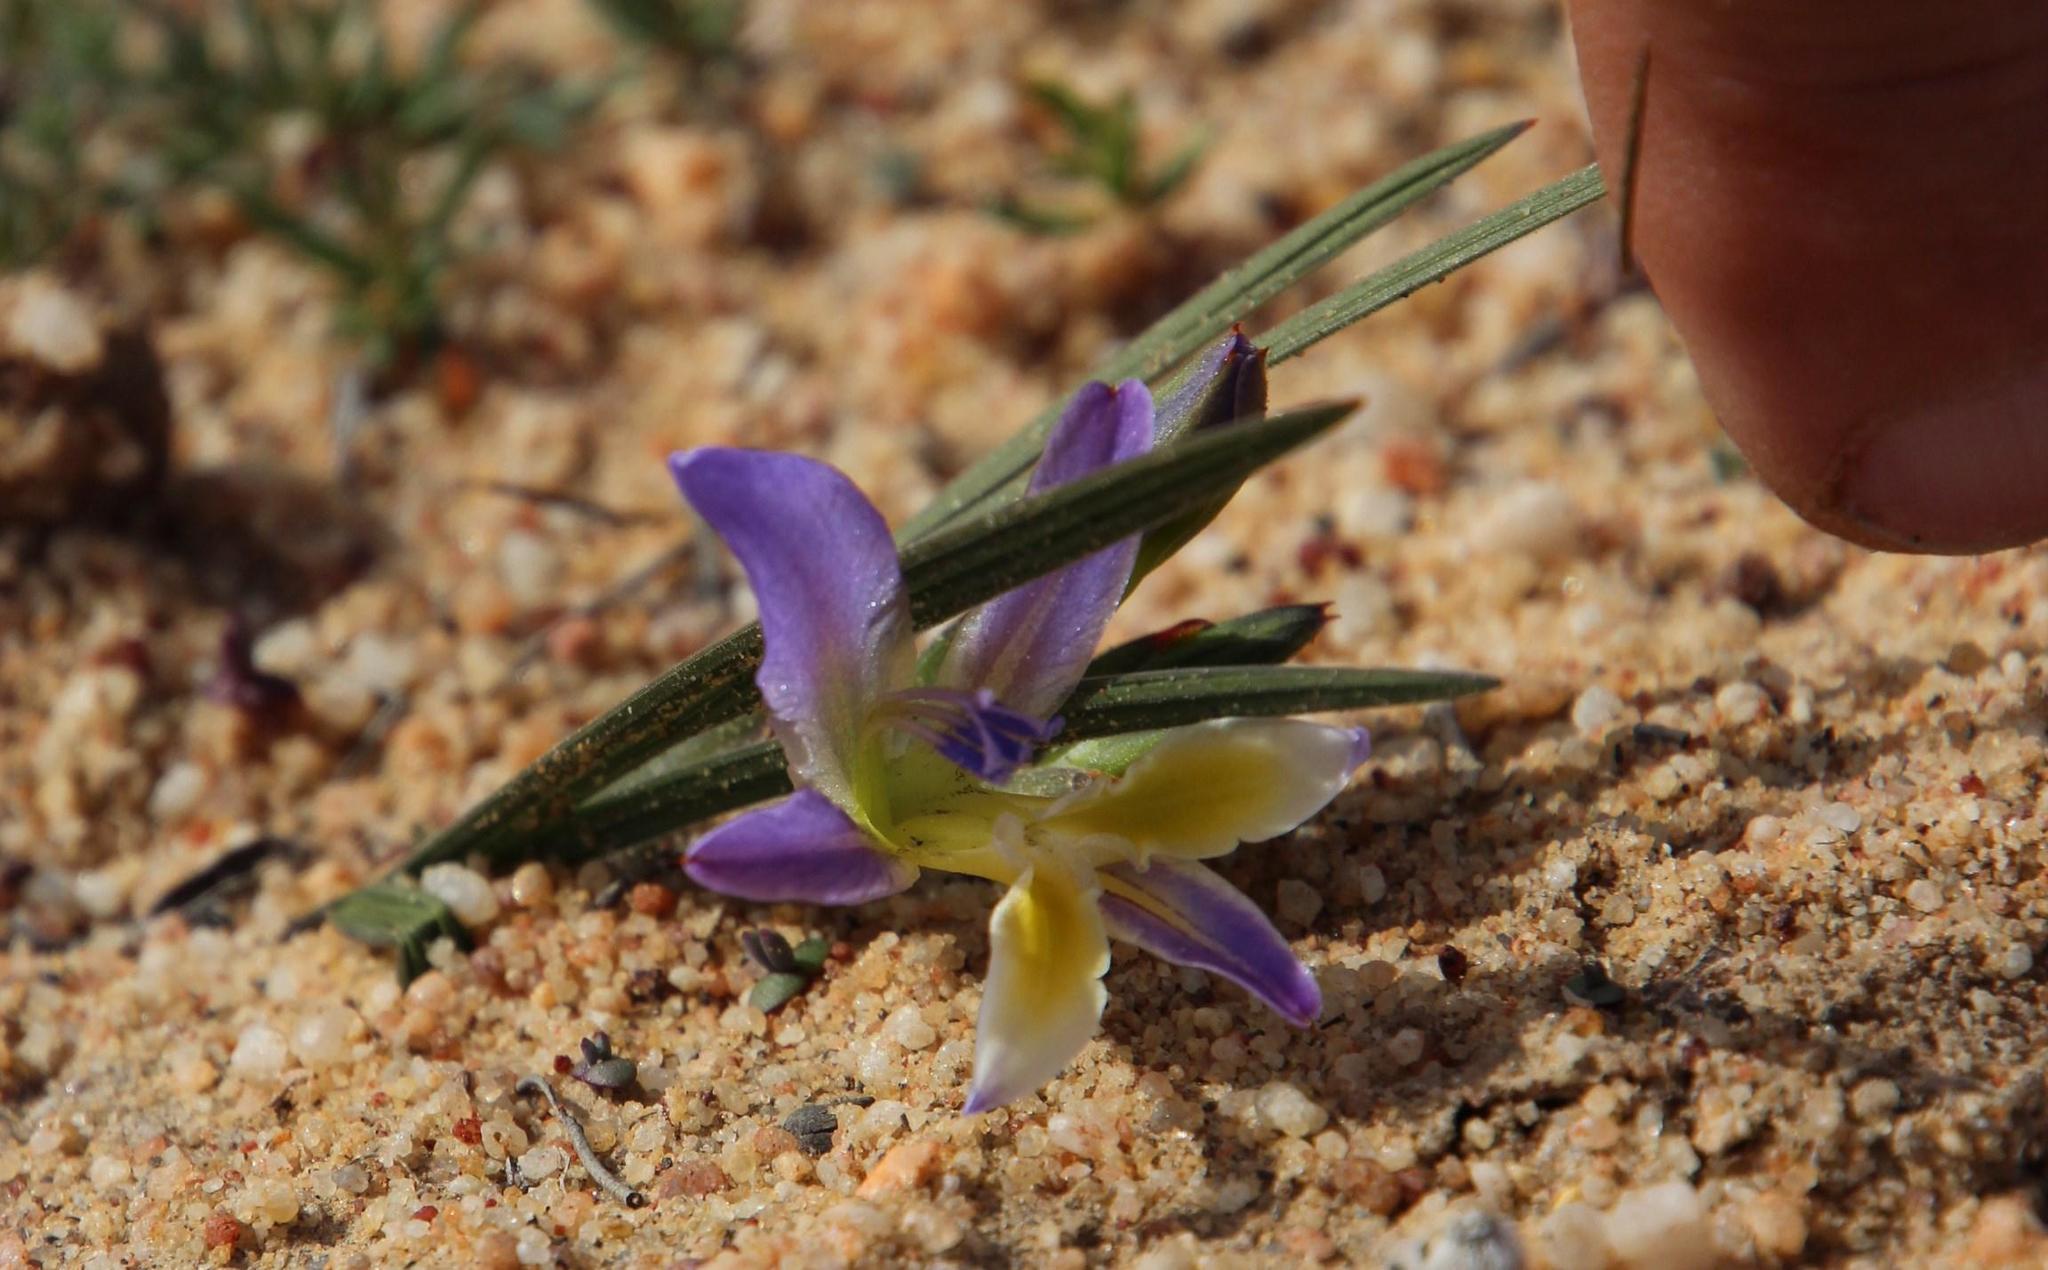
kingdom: Plantae
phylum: Tracheophyta
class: Liliopsida
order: Asparagales
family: Iridaceae
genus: Babiana
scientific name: Babiana mucronata
